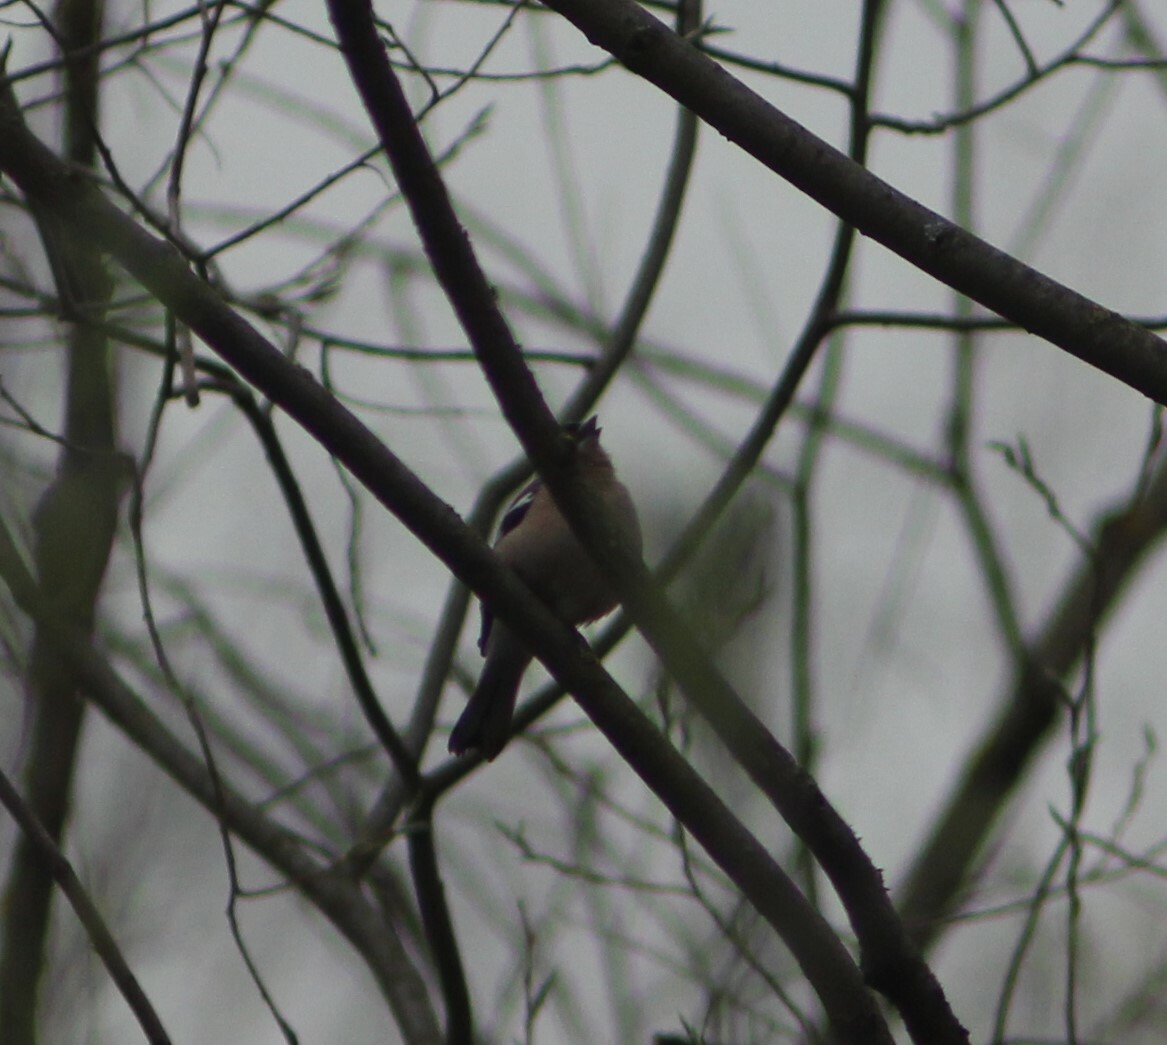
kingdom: Animalia
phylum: Chordata
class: Aves
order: Passeriformes
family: Fringillidae
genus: Fringilla
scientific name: Fringilla coelebs
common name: Common chaffinch
